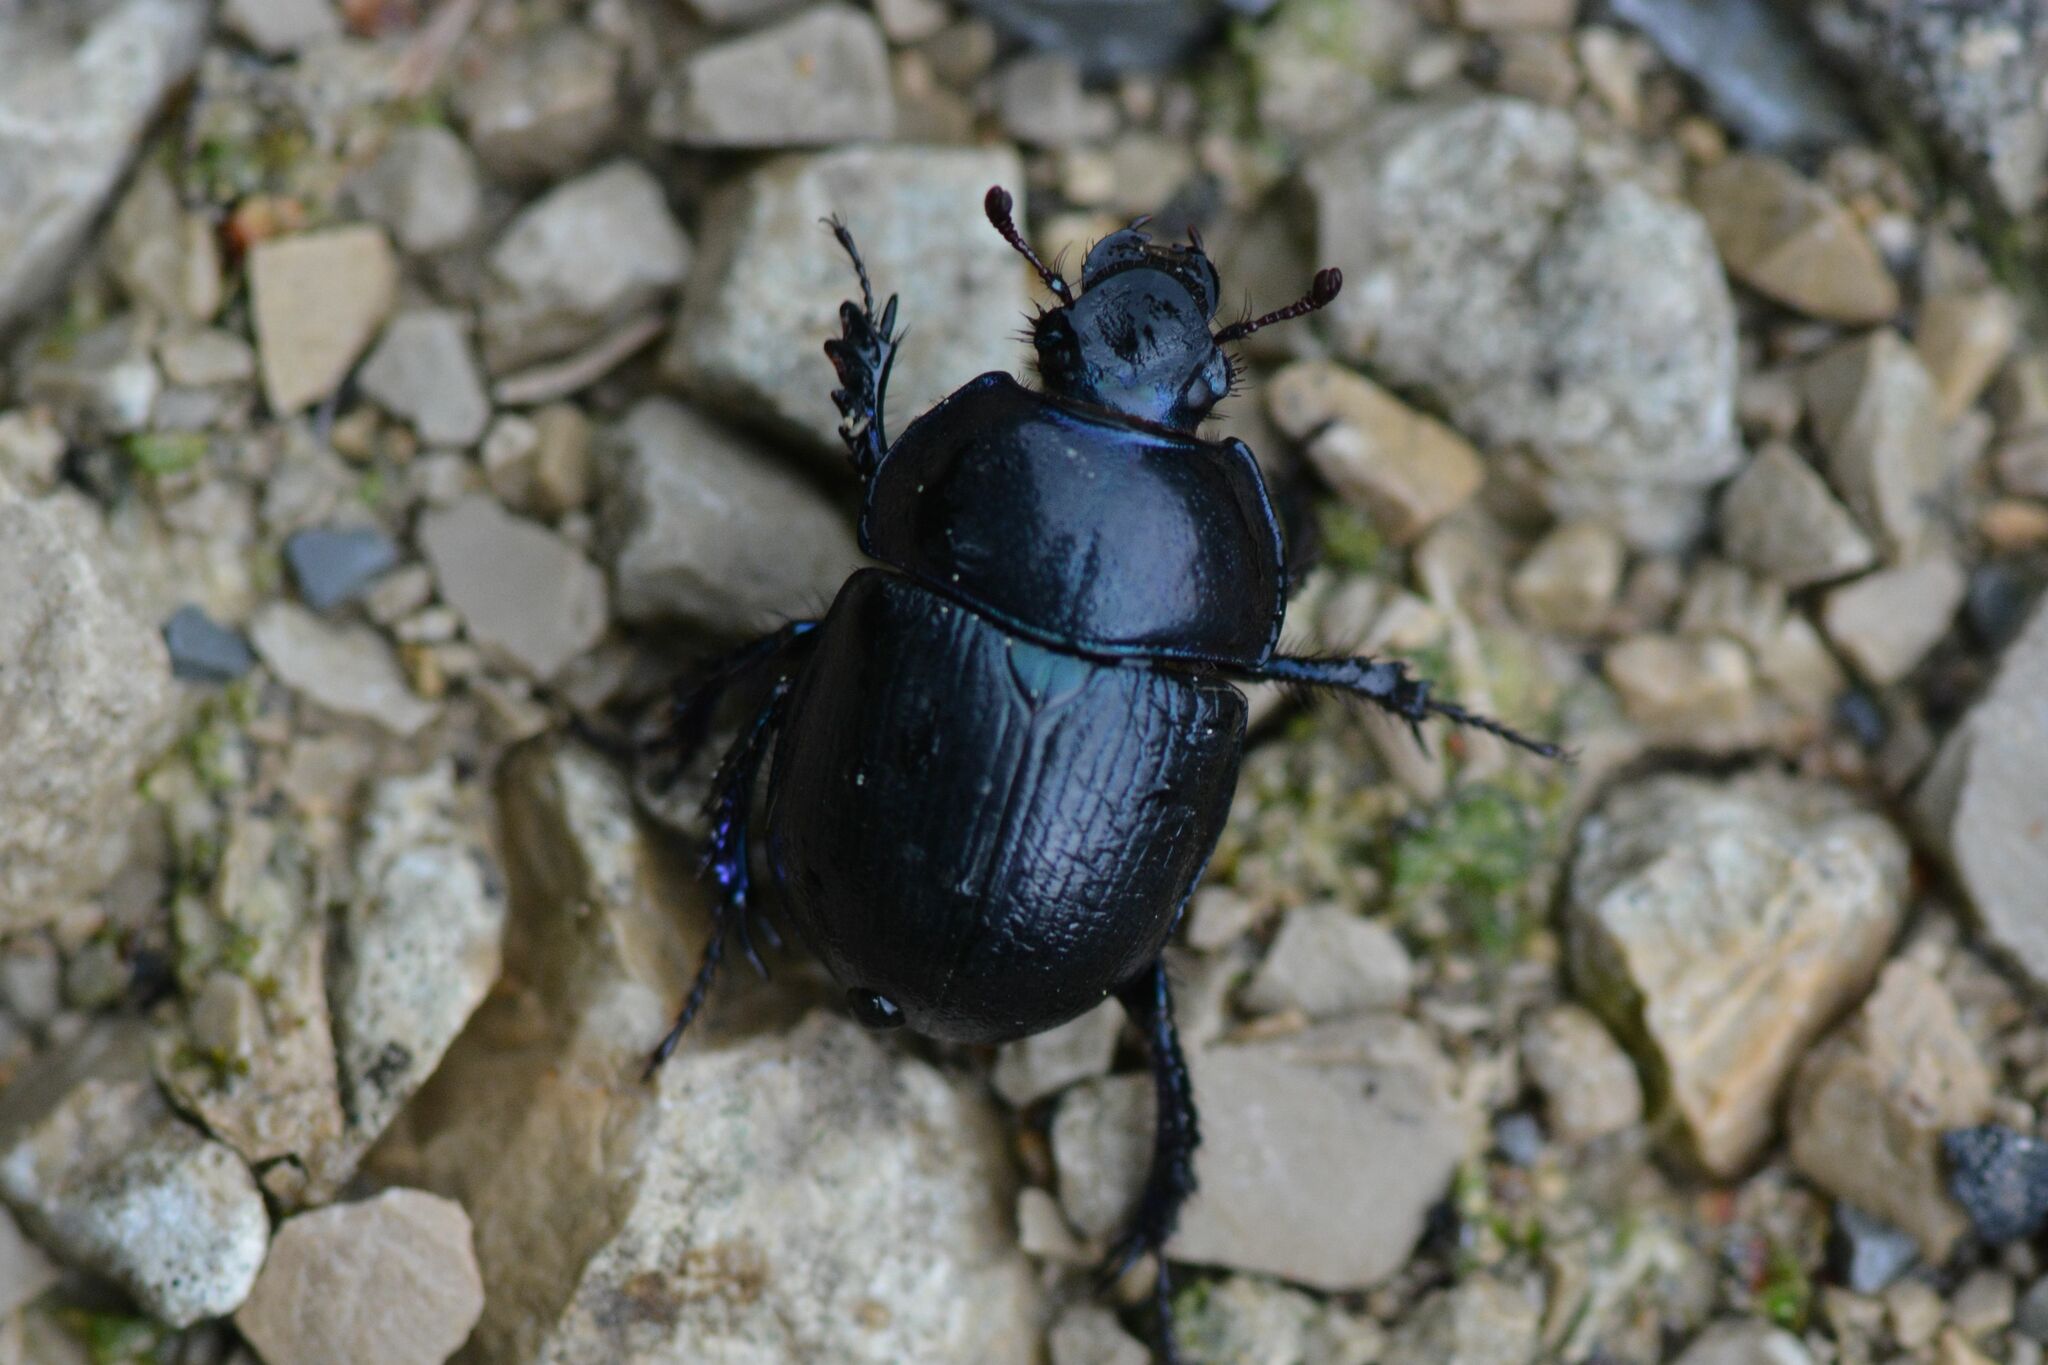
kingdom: Animalia
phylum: Arthropoda
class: Insecta
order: Coleoptera
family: Geotrupidae
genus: Anoplotrupes
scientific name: Anoplotrupes stercorosus
